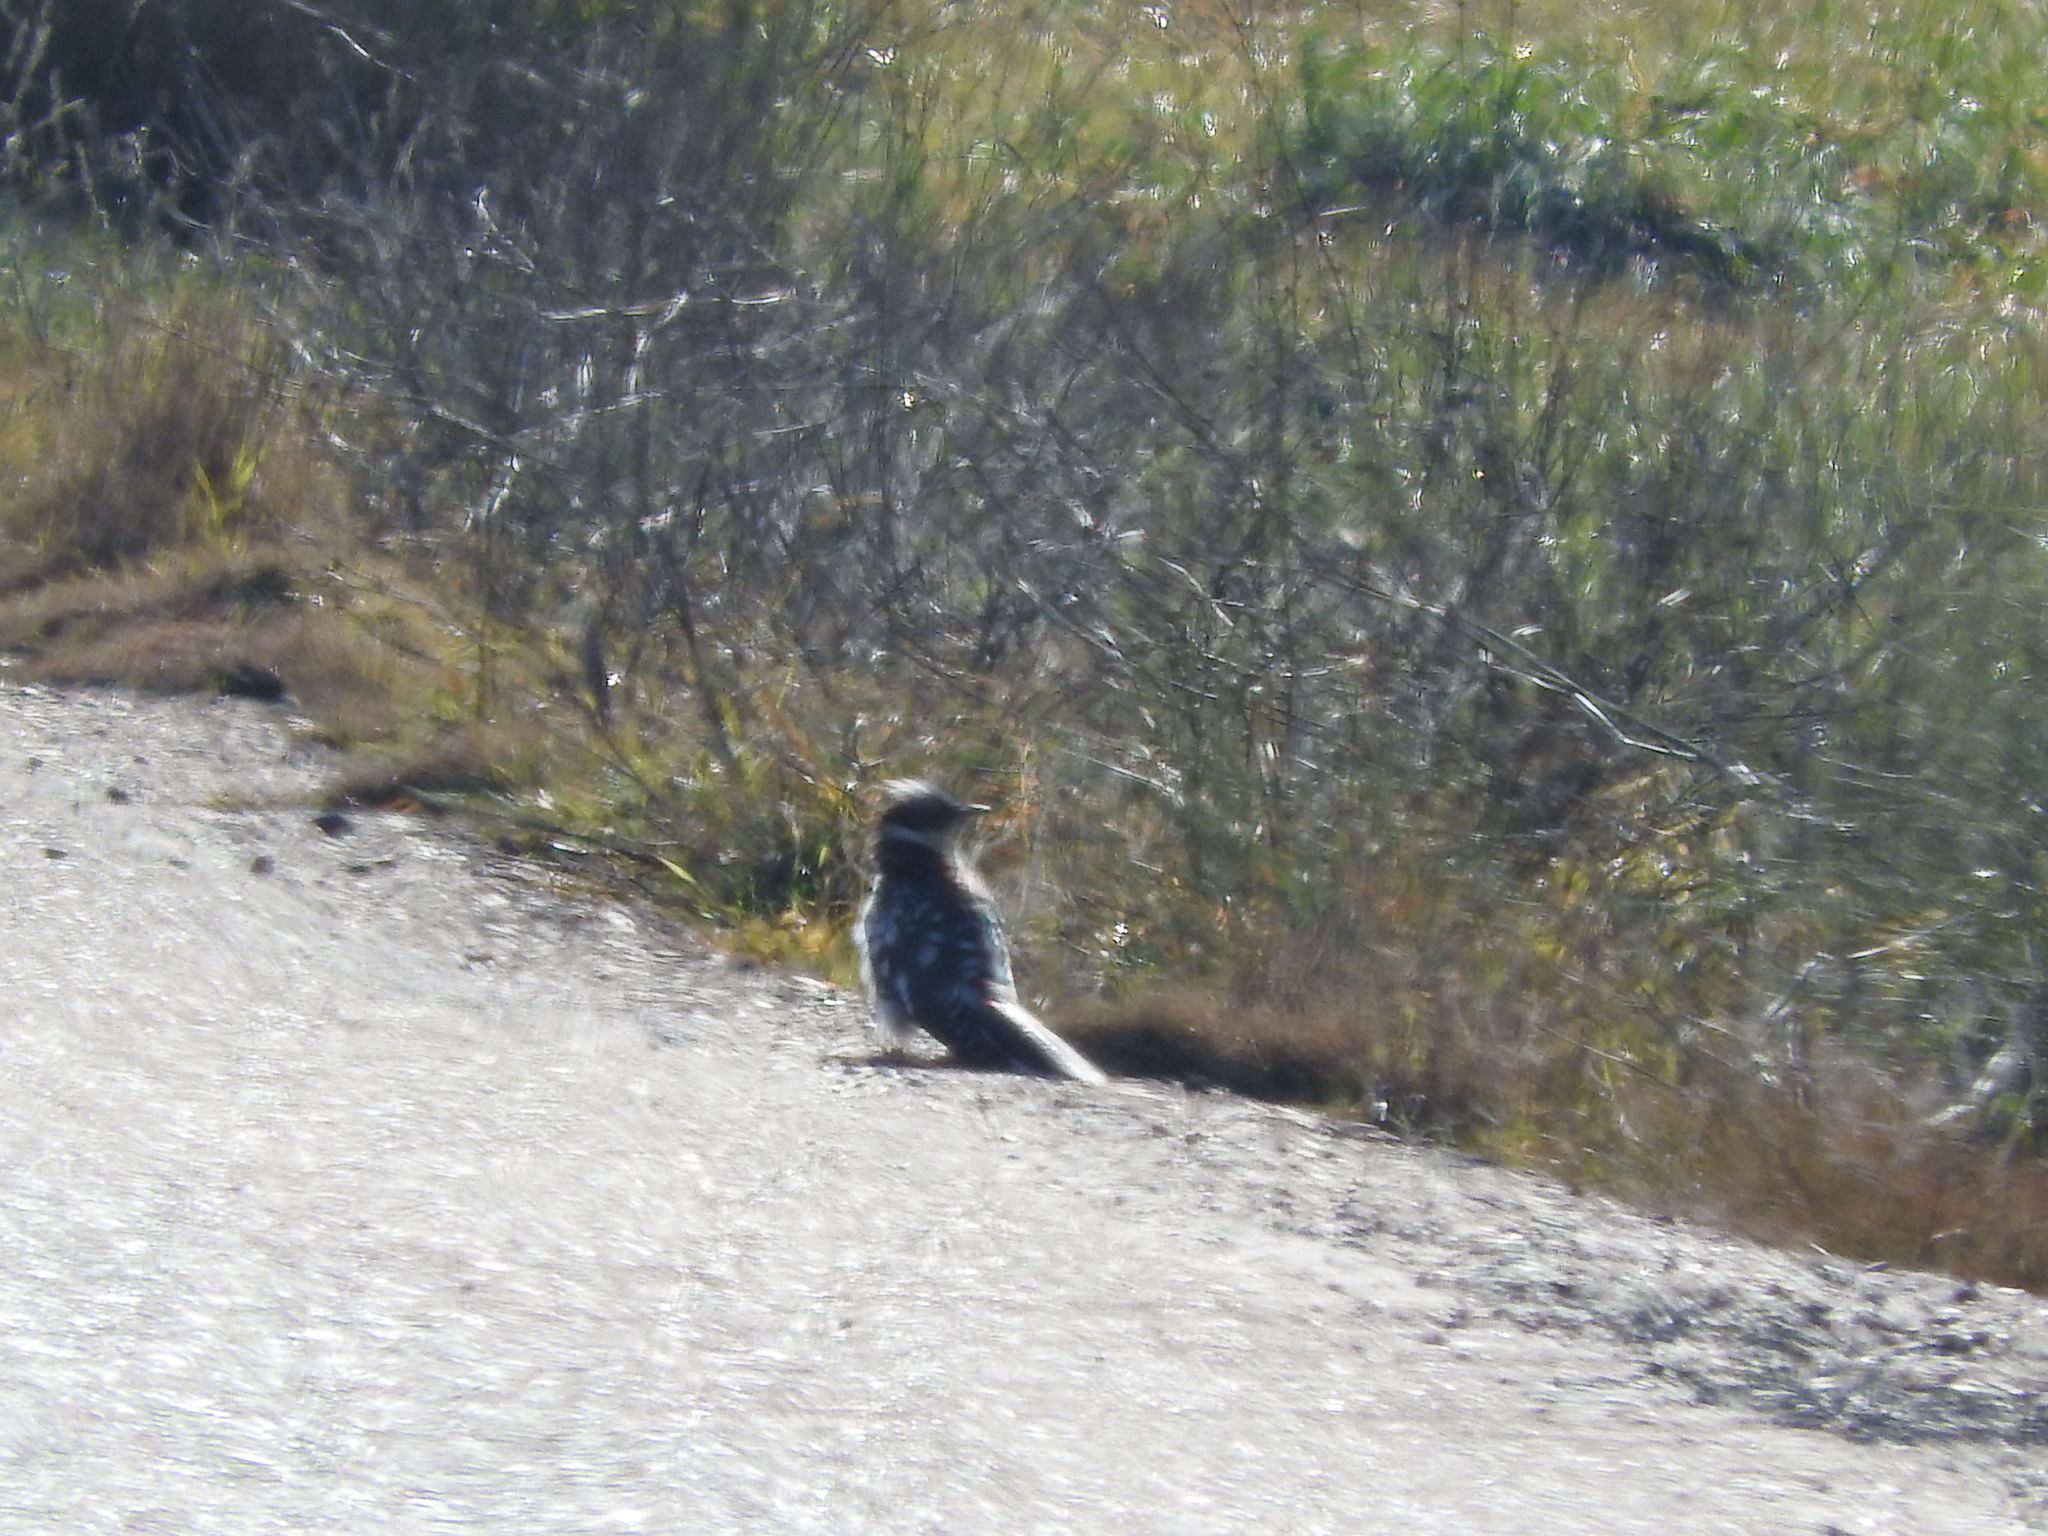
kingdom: Animalia
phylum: Chordata
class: Aves
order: Cuculiformes
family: Cuculidae
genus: Clamator
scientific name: Clamator glandarius
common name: Great spotted cuckoo
